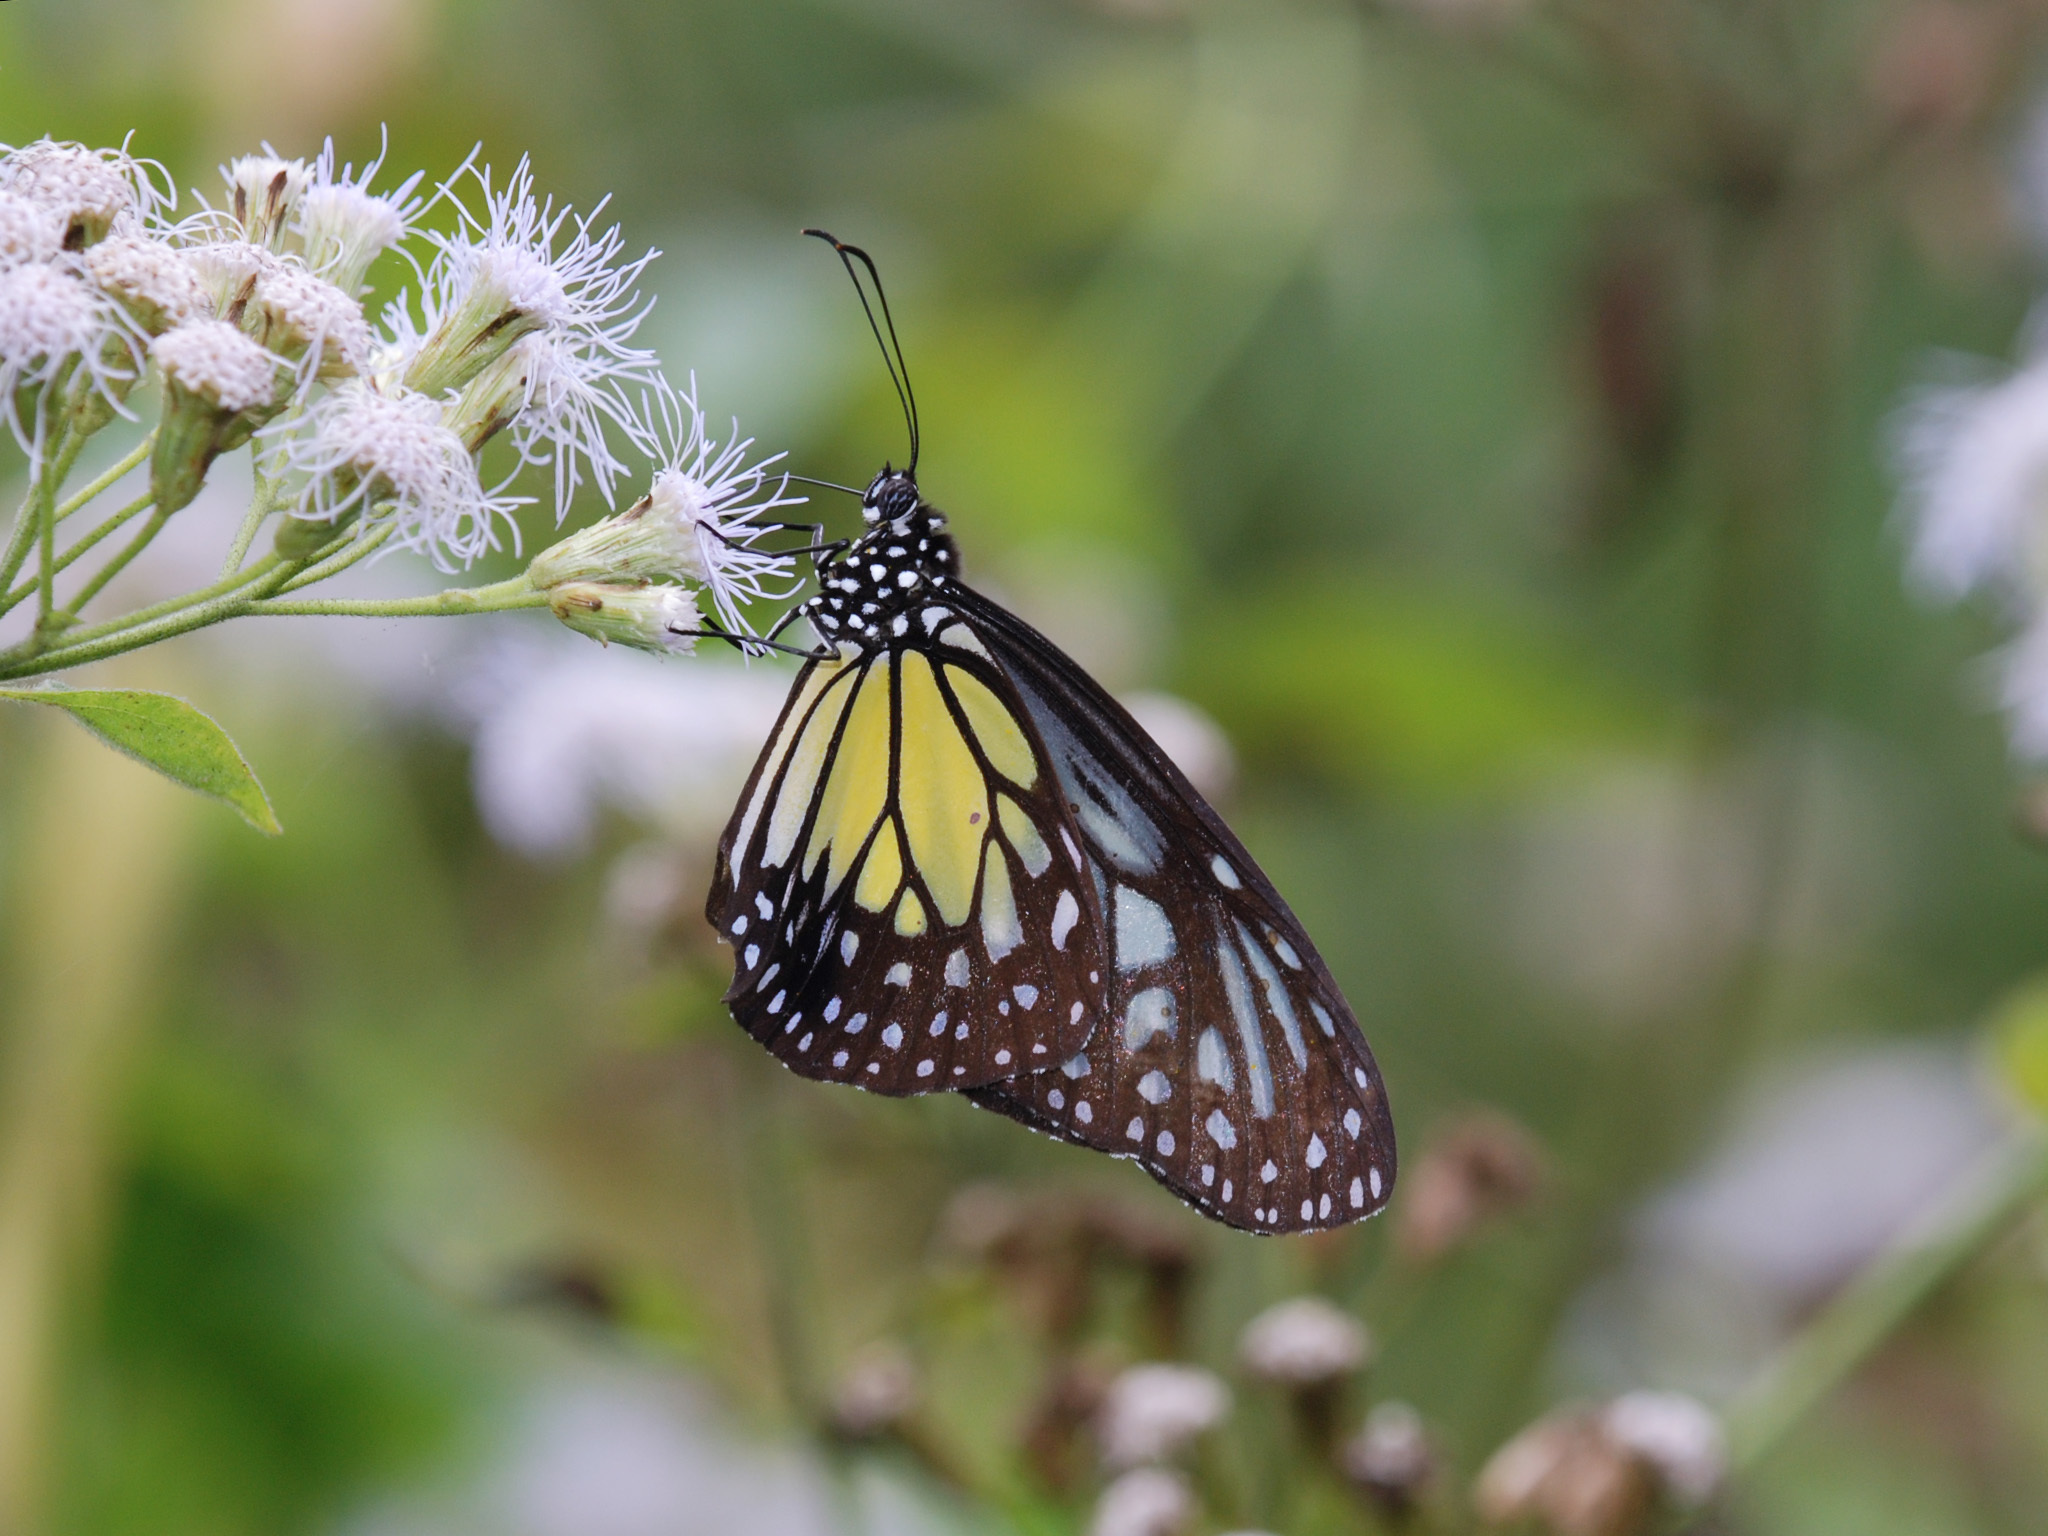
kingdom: Animalia
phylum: Arthropoda
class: Insecta
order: Lepidoptera
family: Nymphalidae
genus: Parantica
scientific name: Parantica aspasia
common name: Yellow glassy tiger
